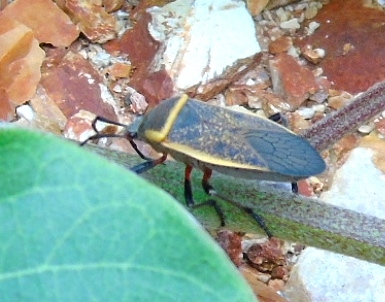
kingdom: Animalia
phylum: Arthropoda
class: Insecta
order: Hemiptera
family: Largidae
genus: Largus
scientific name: Largus
